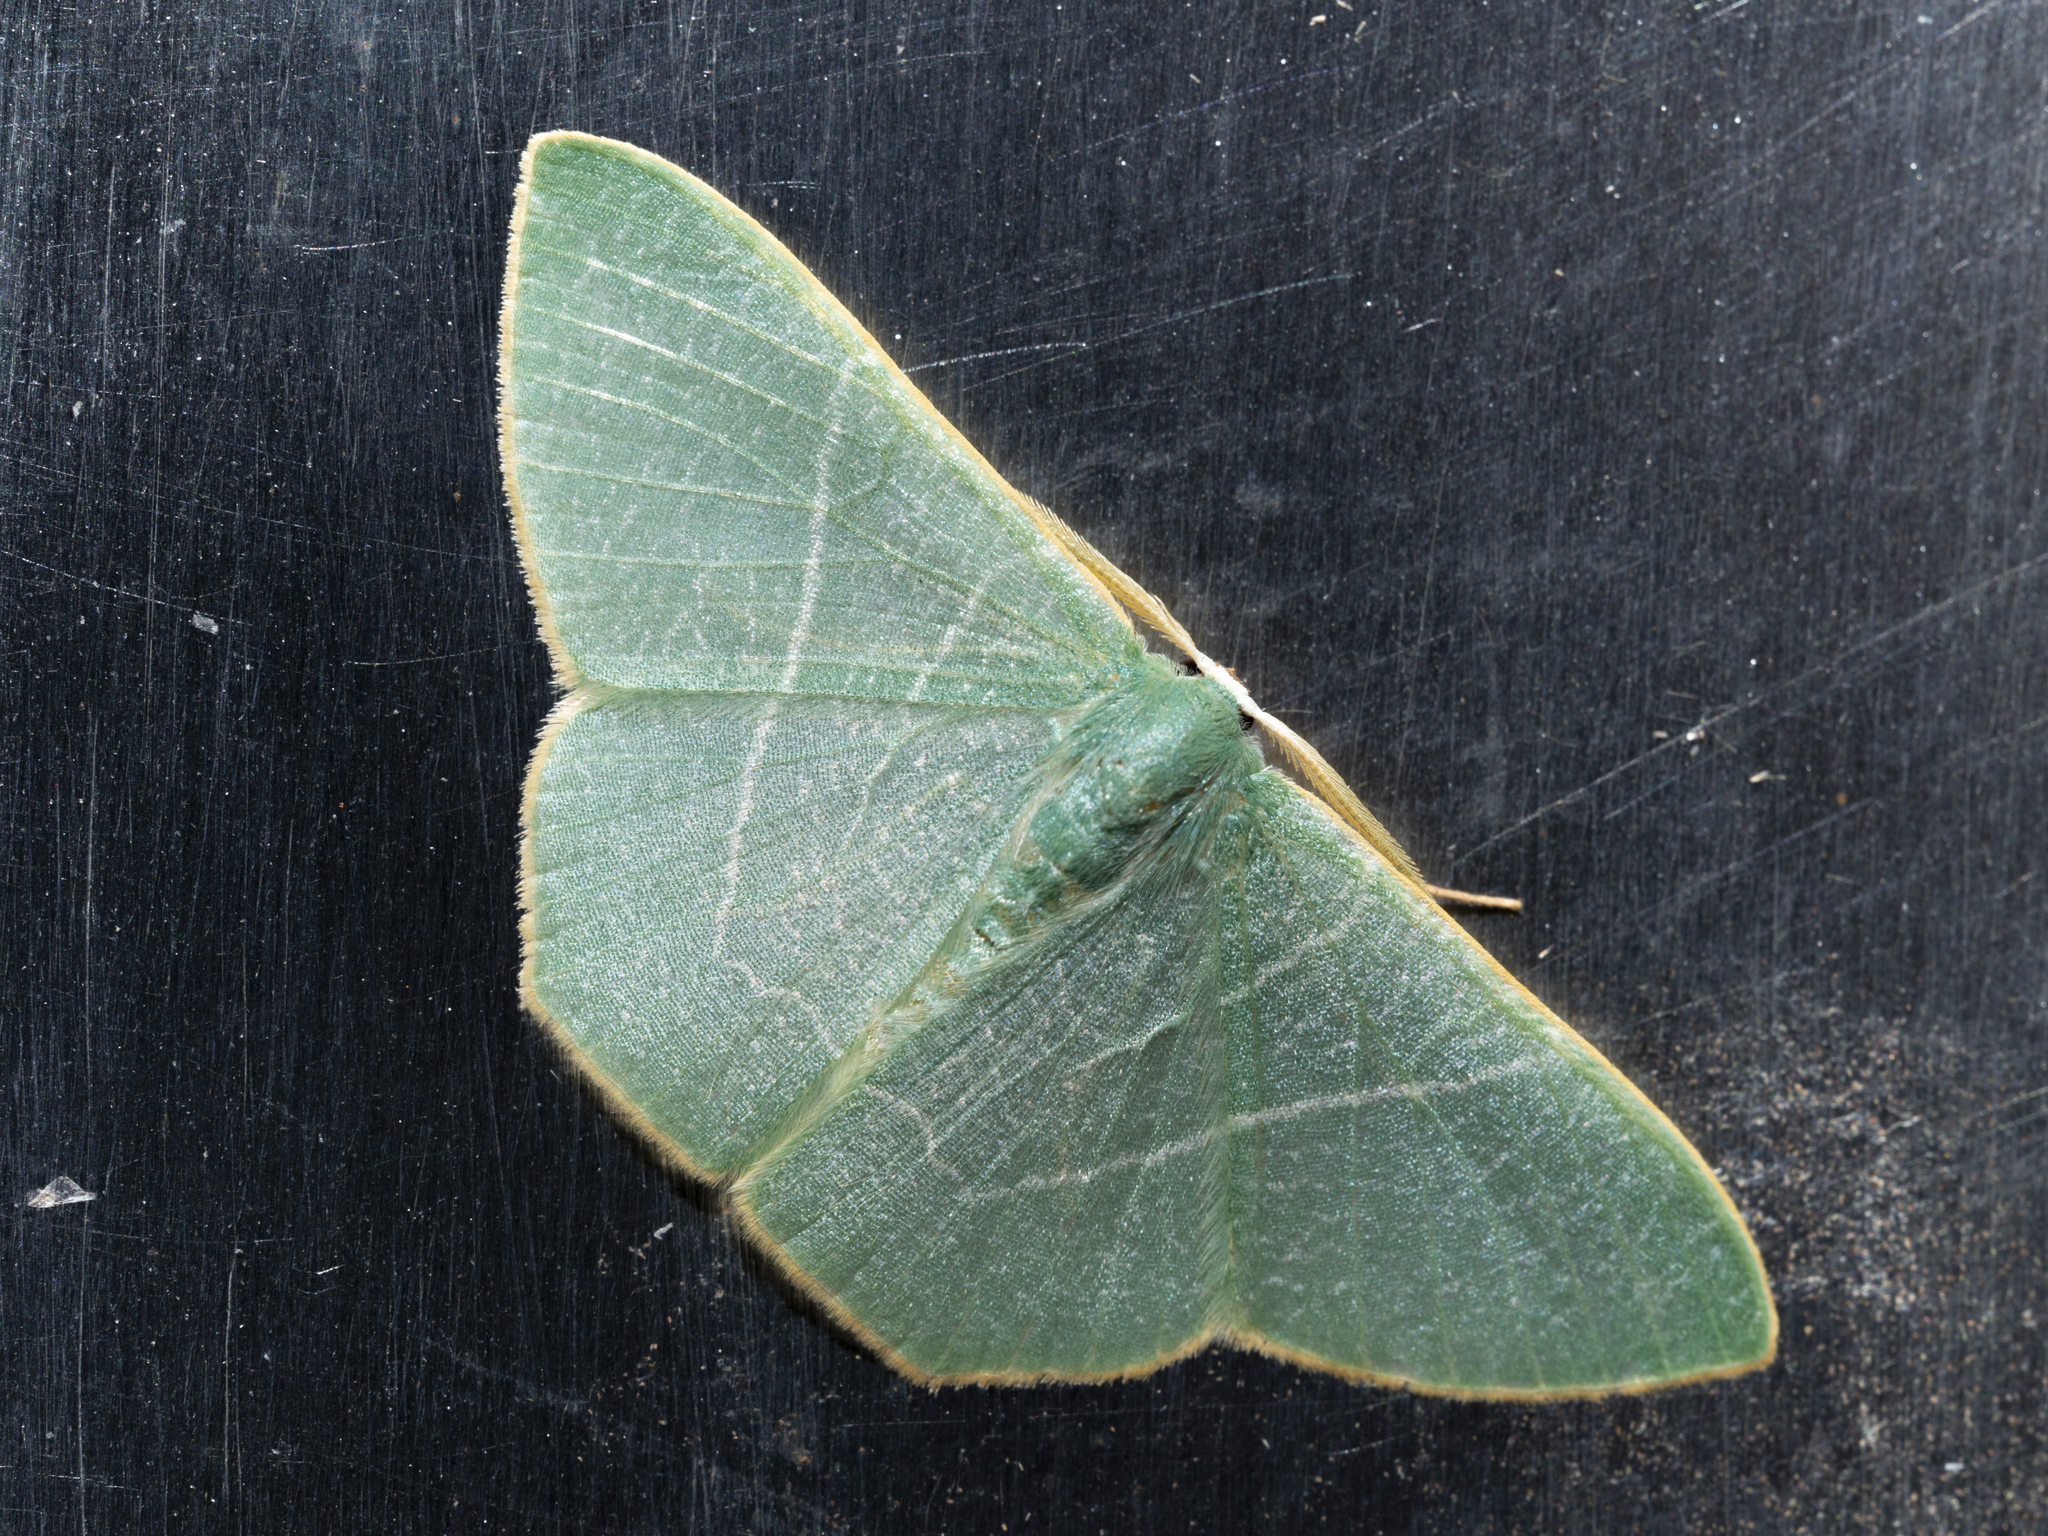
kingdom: Animalia
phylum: Arthropoda
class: Insecta
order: Lepidoptera
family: Geometridae
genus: Pelagodes
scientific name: Pelagodes antiquadraria
